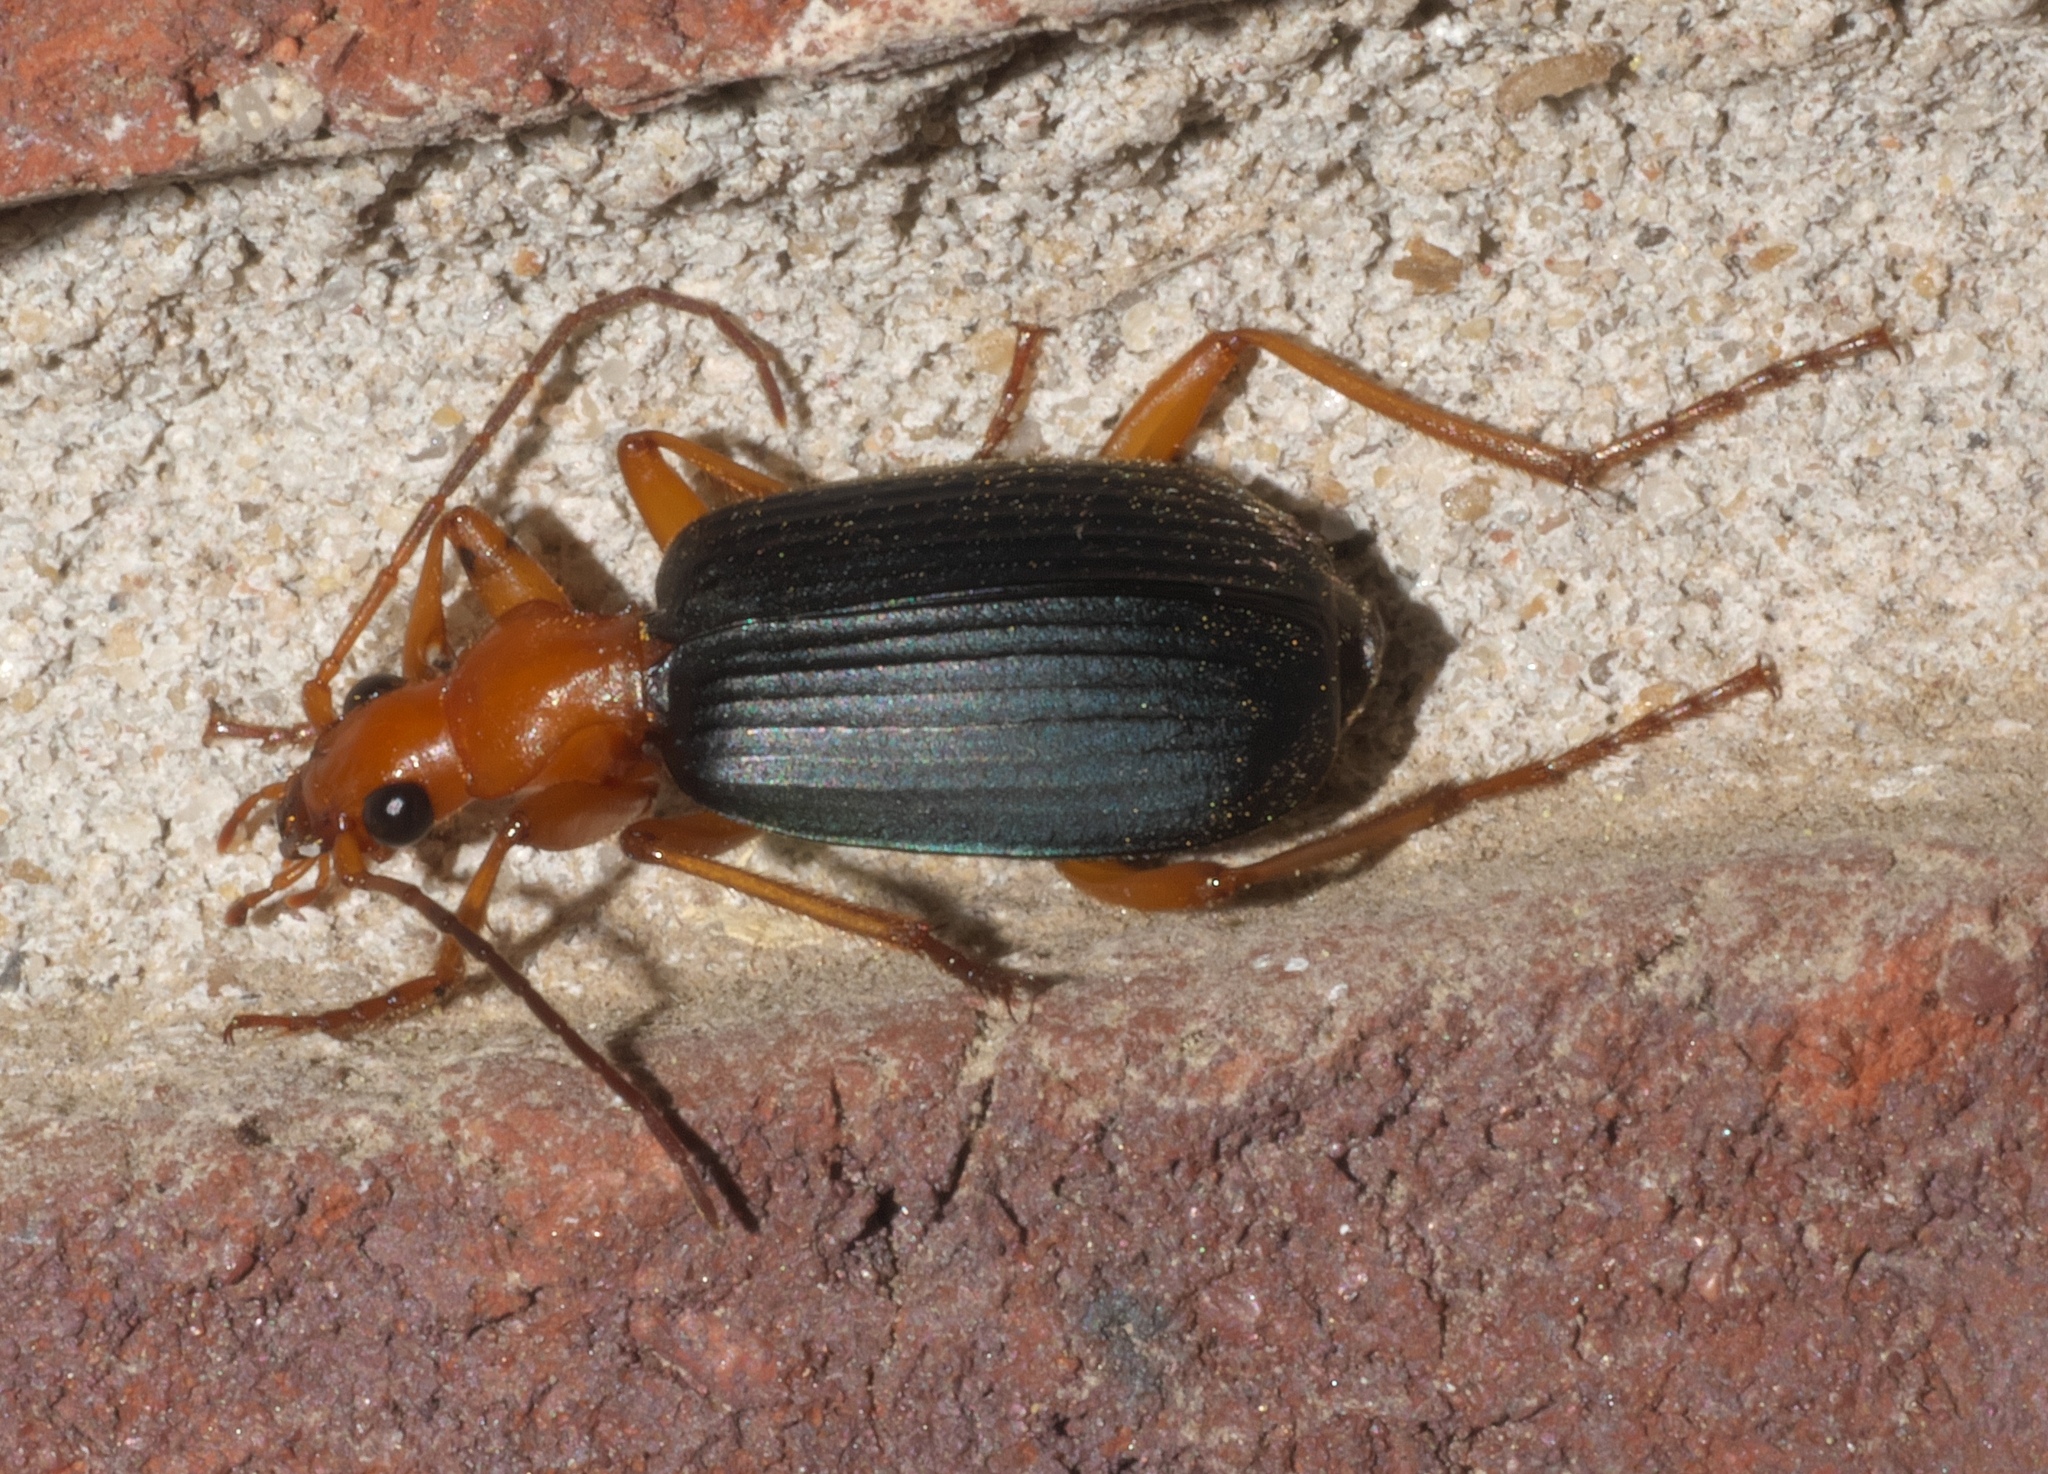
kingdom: Animalia
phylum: Arthropoda
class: Insecta
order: Coleoptera
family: Carabidae
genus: Brachinus
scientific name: Brachinus
